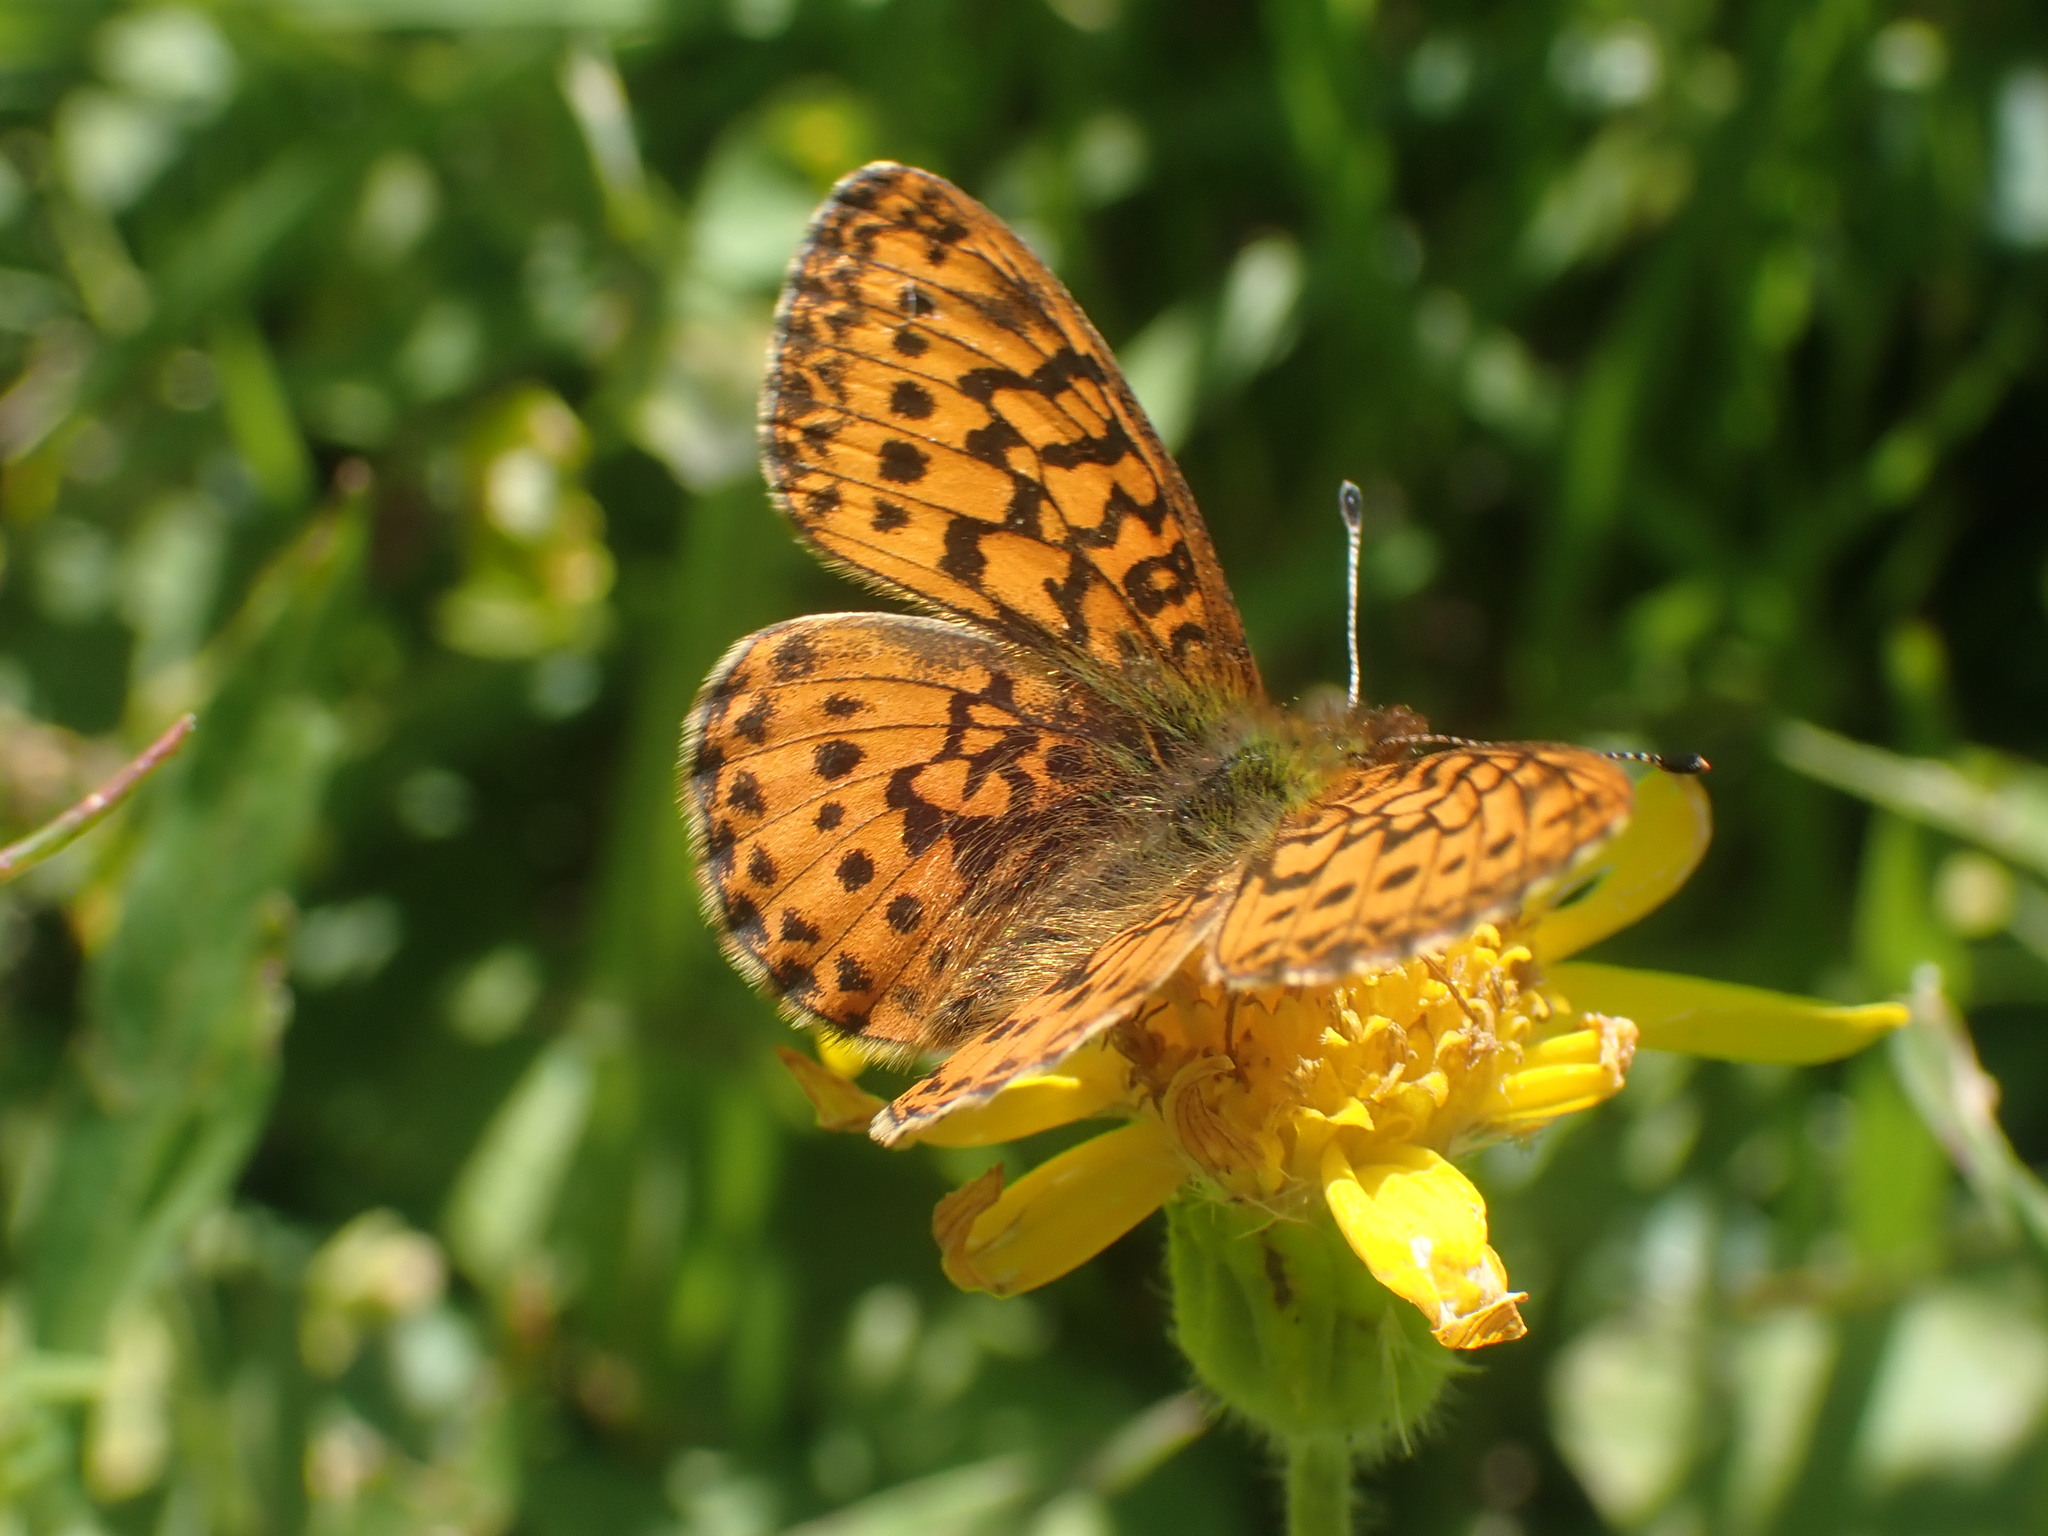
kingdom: Animalia
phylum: Arthropoda
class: Insecta
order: Lepidoptera
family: Nymphalidae
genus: Boloria
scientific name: Boloria epithore
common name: Pacific fritillary
